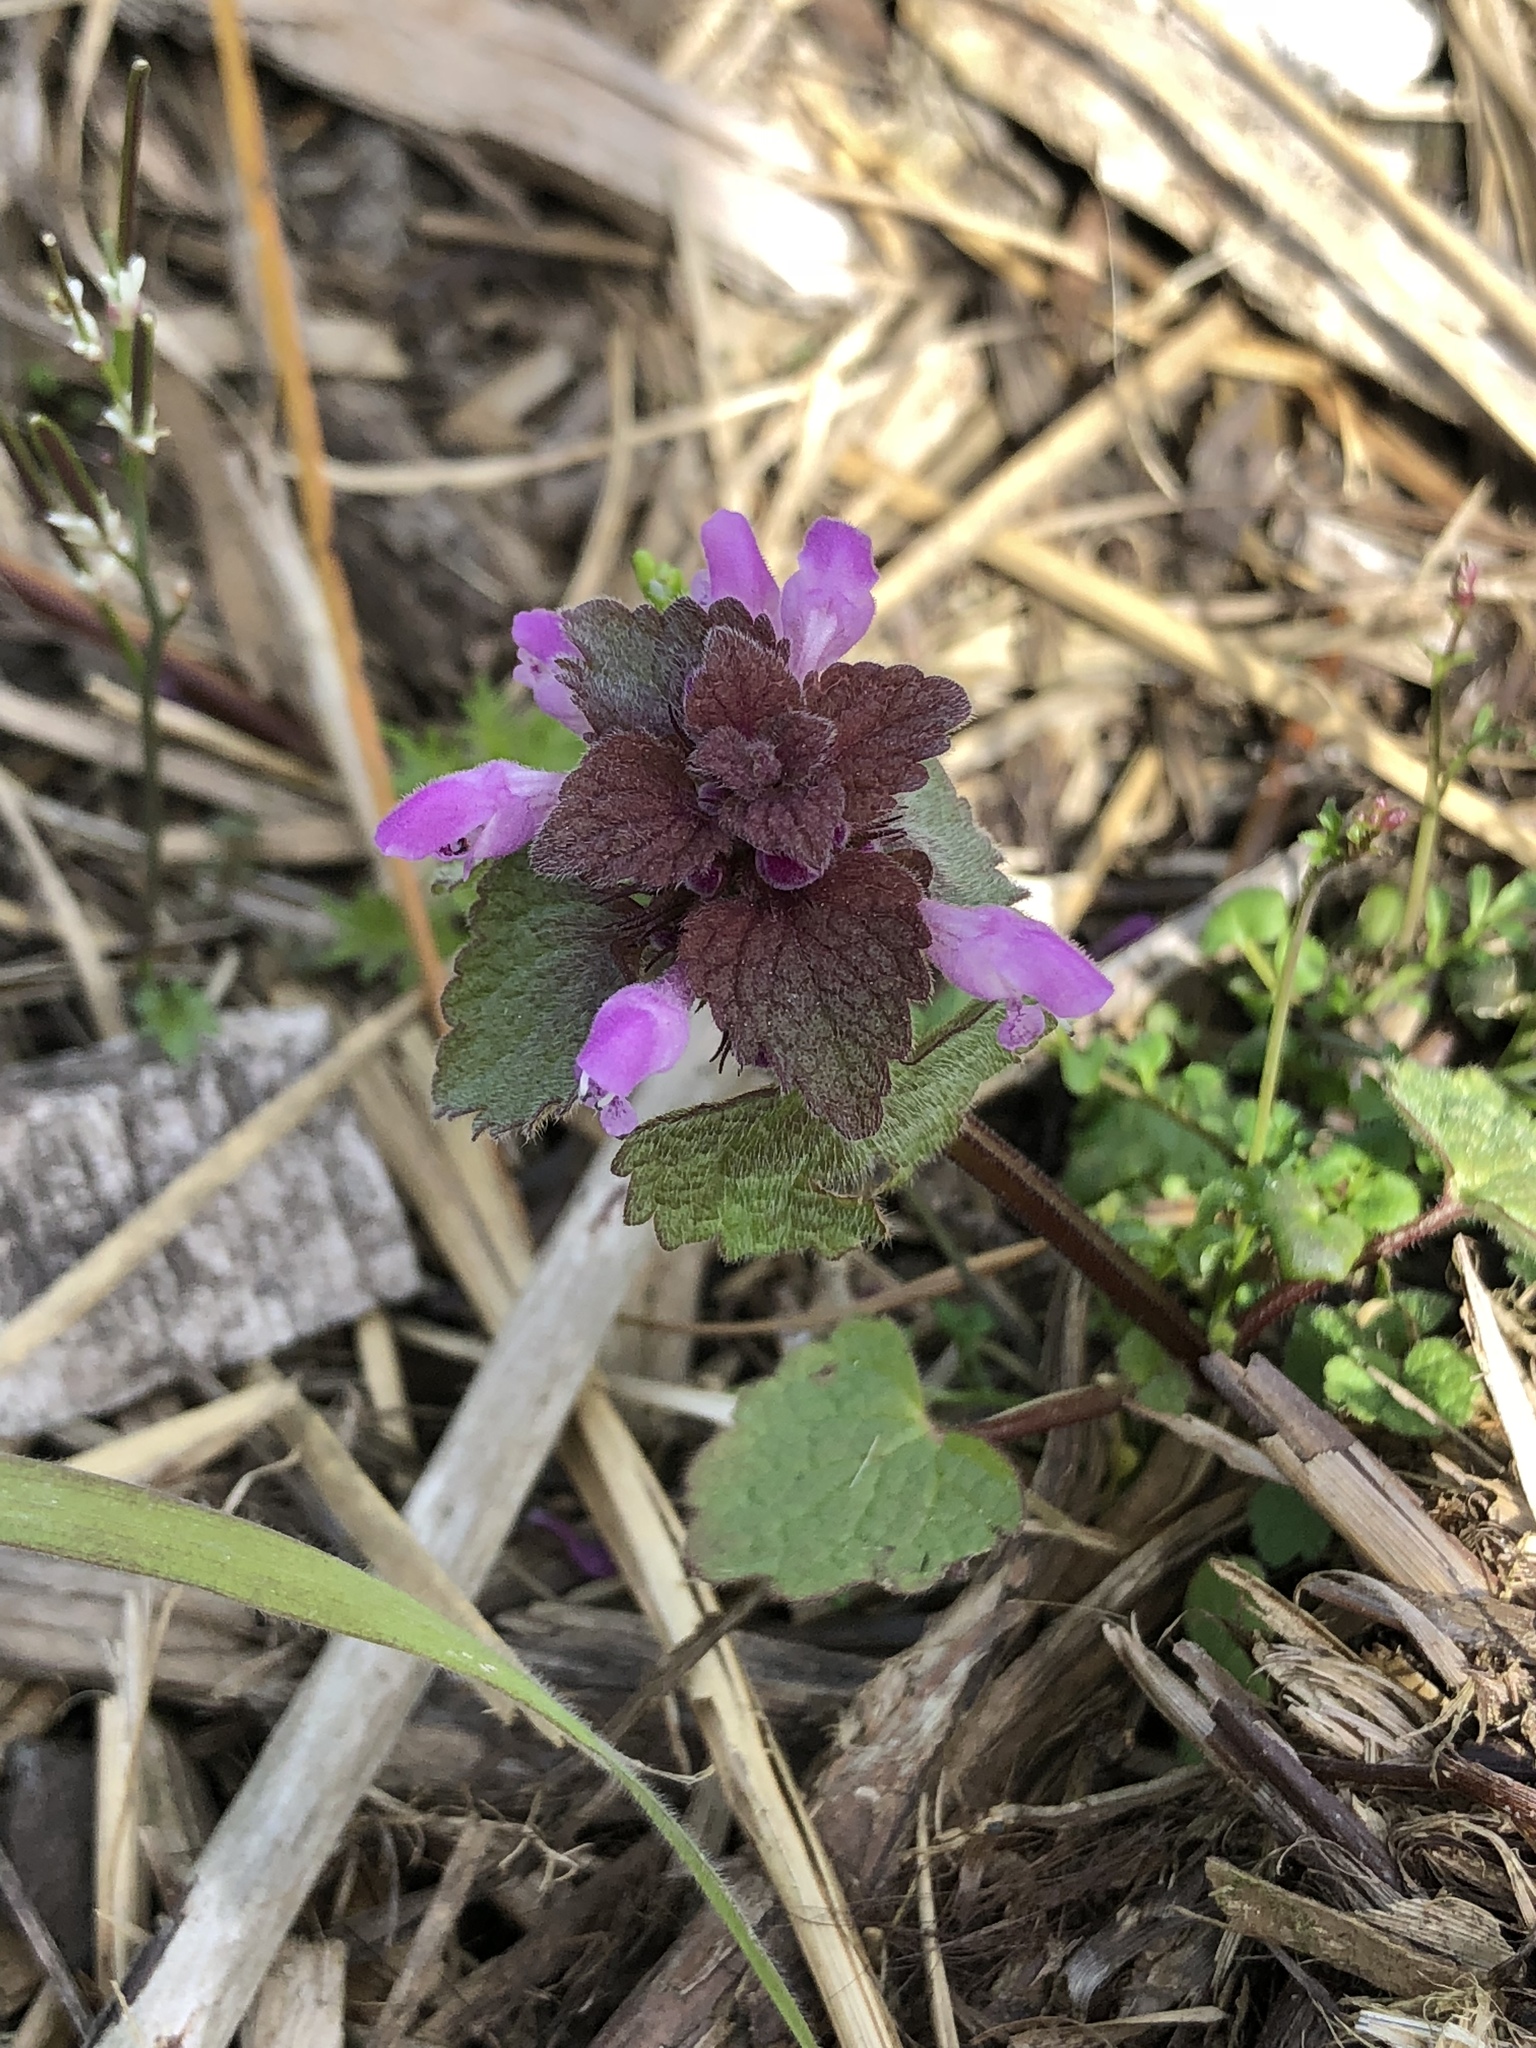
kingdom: Plantae
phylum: Tracheophyta
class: Magnoliopsida
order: Lamiales
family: Lamiaceae
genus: Lamium
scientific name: Lamium purpureum
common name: Red dead-nettle
